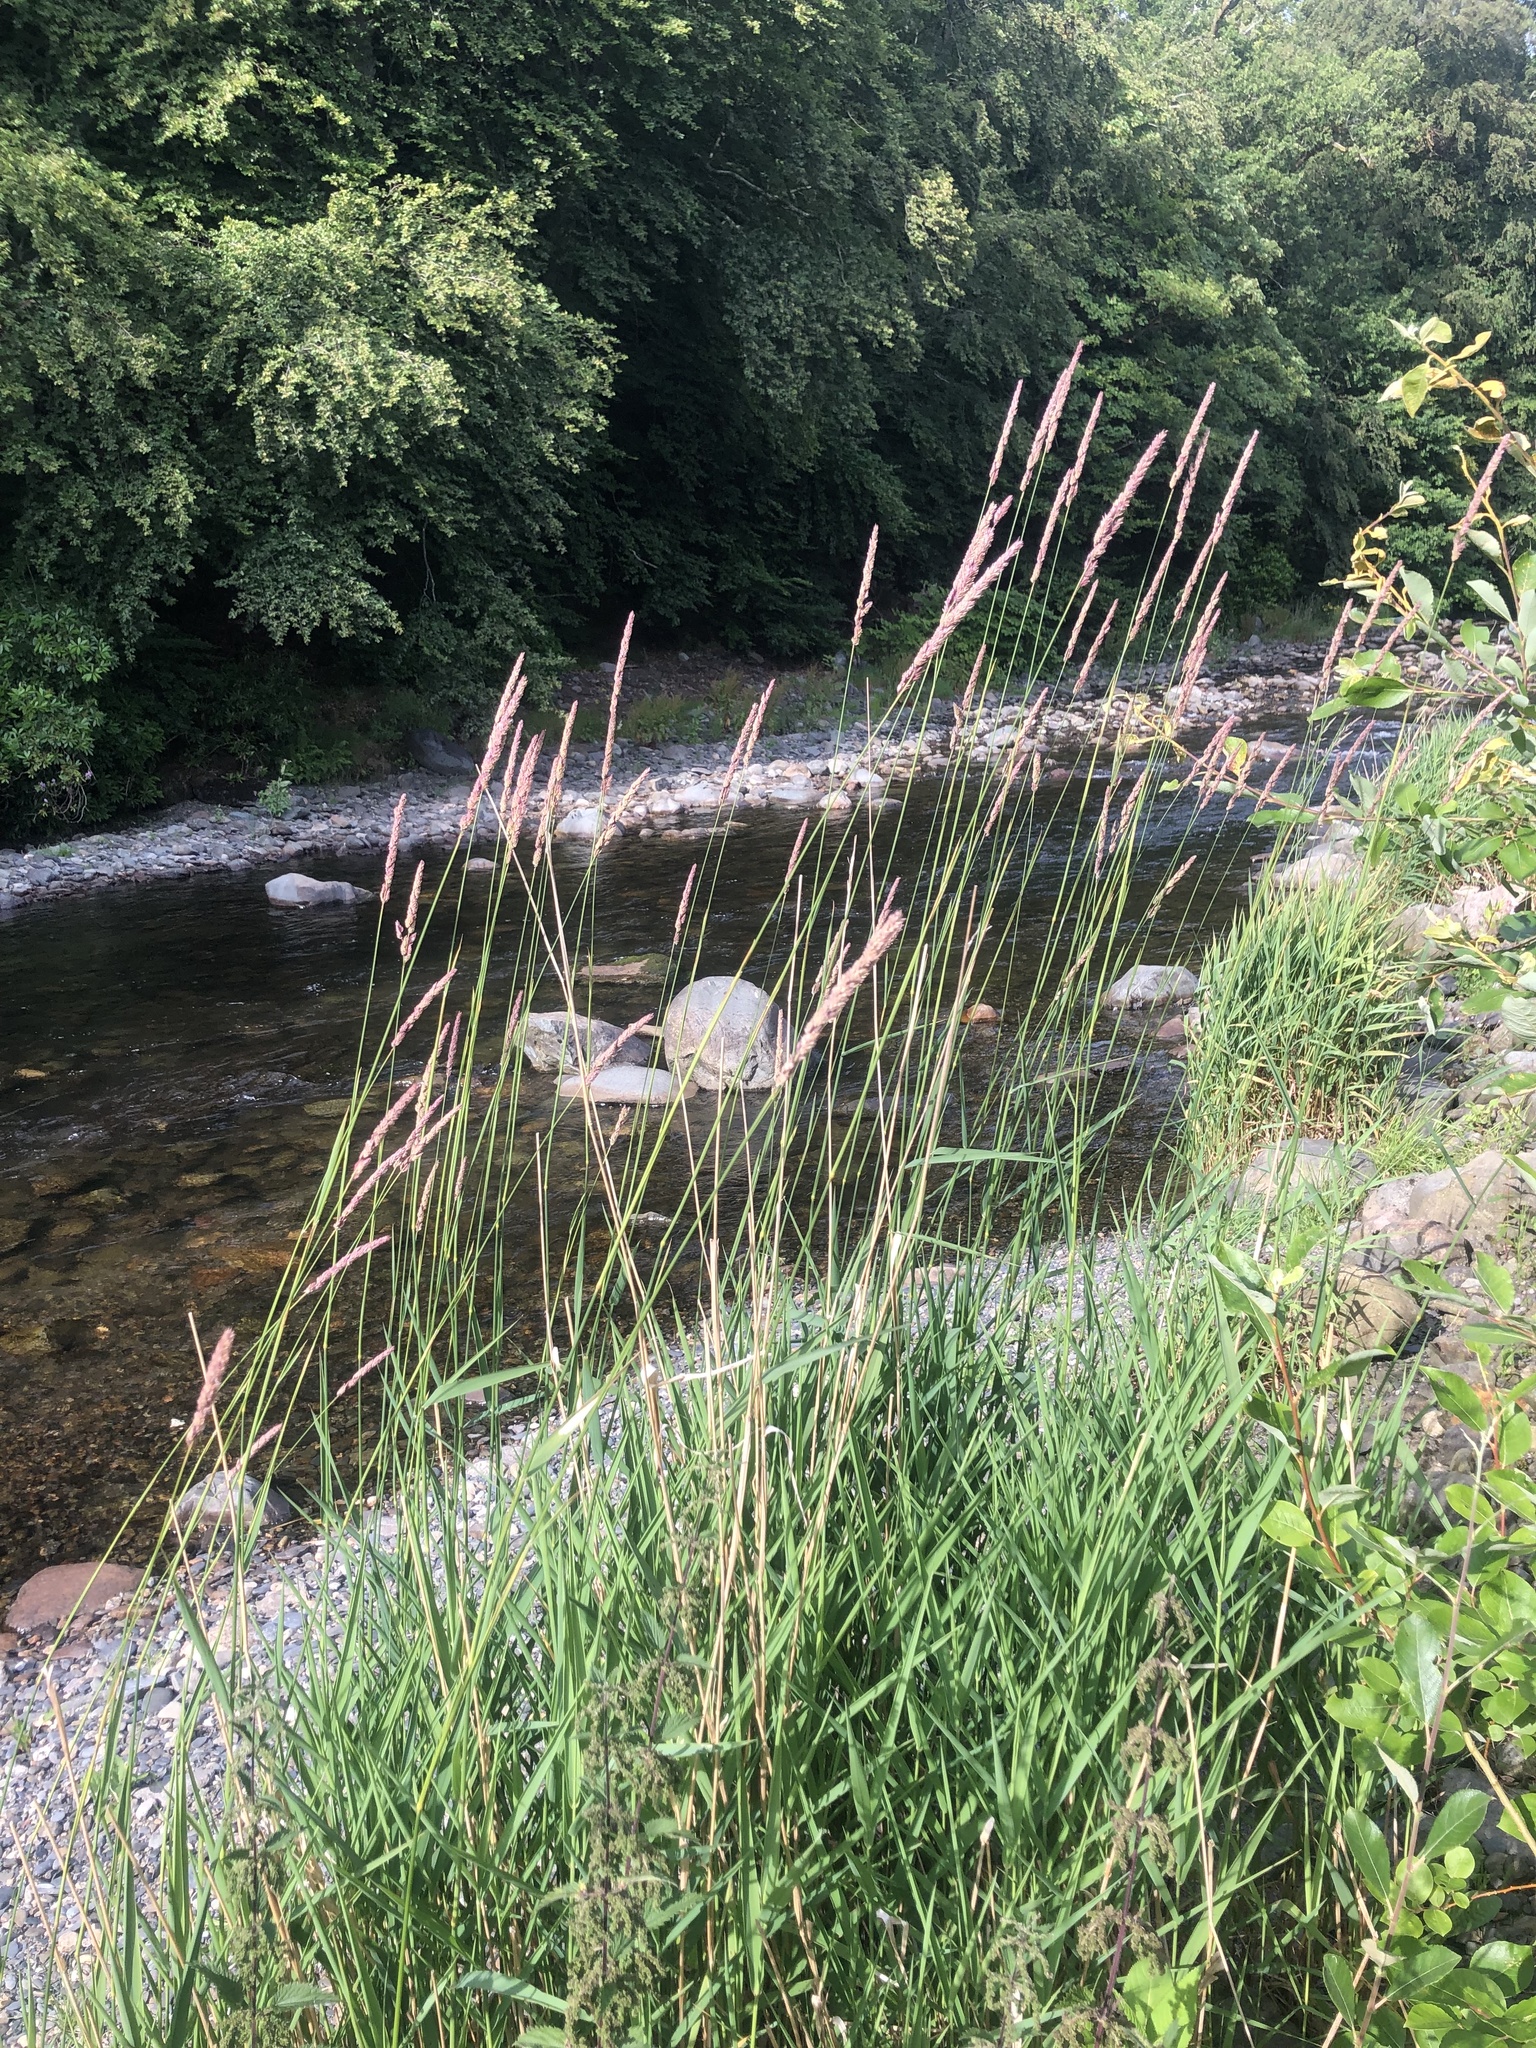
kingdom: Plantae
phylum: Tracheophyta
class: Liliopsida
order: Poales
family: Poaceae
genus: Phalaris
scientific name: Phalaris arundinacea
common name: Reed canary-grass
